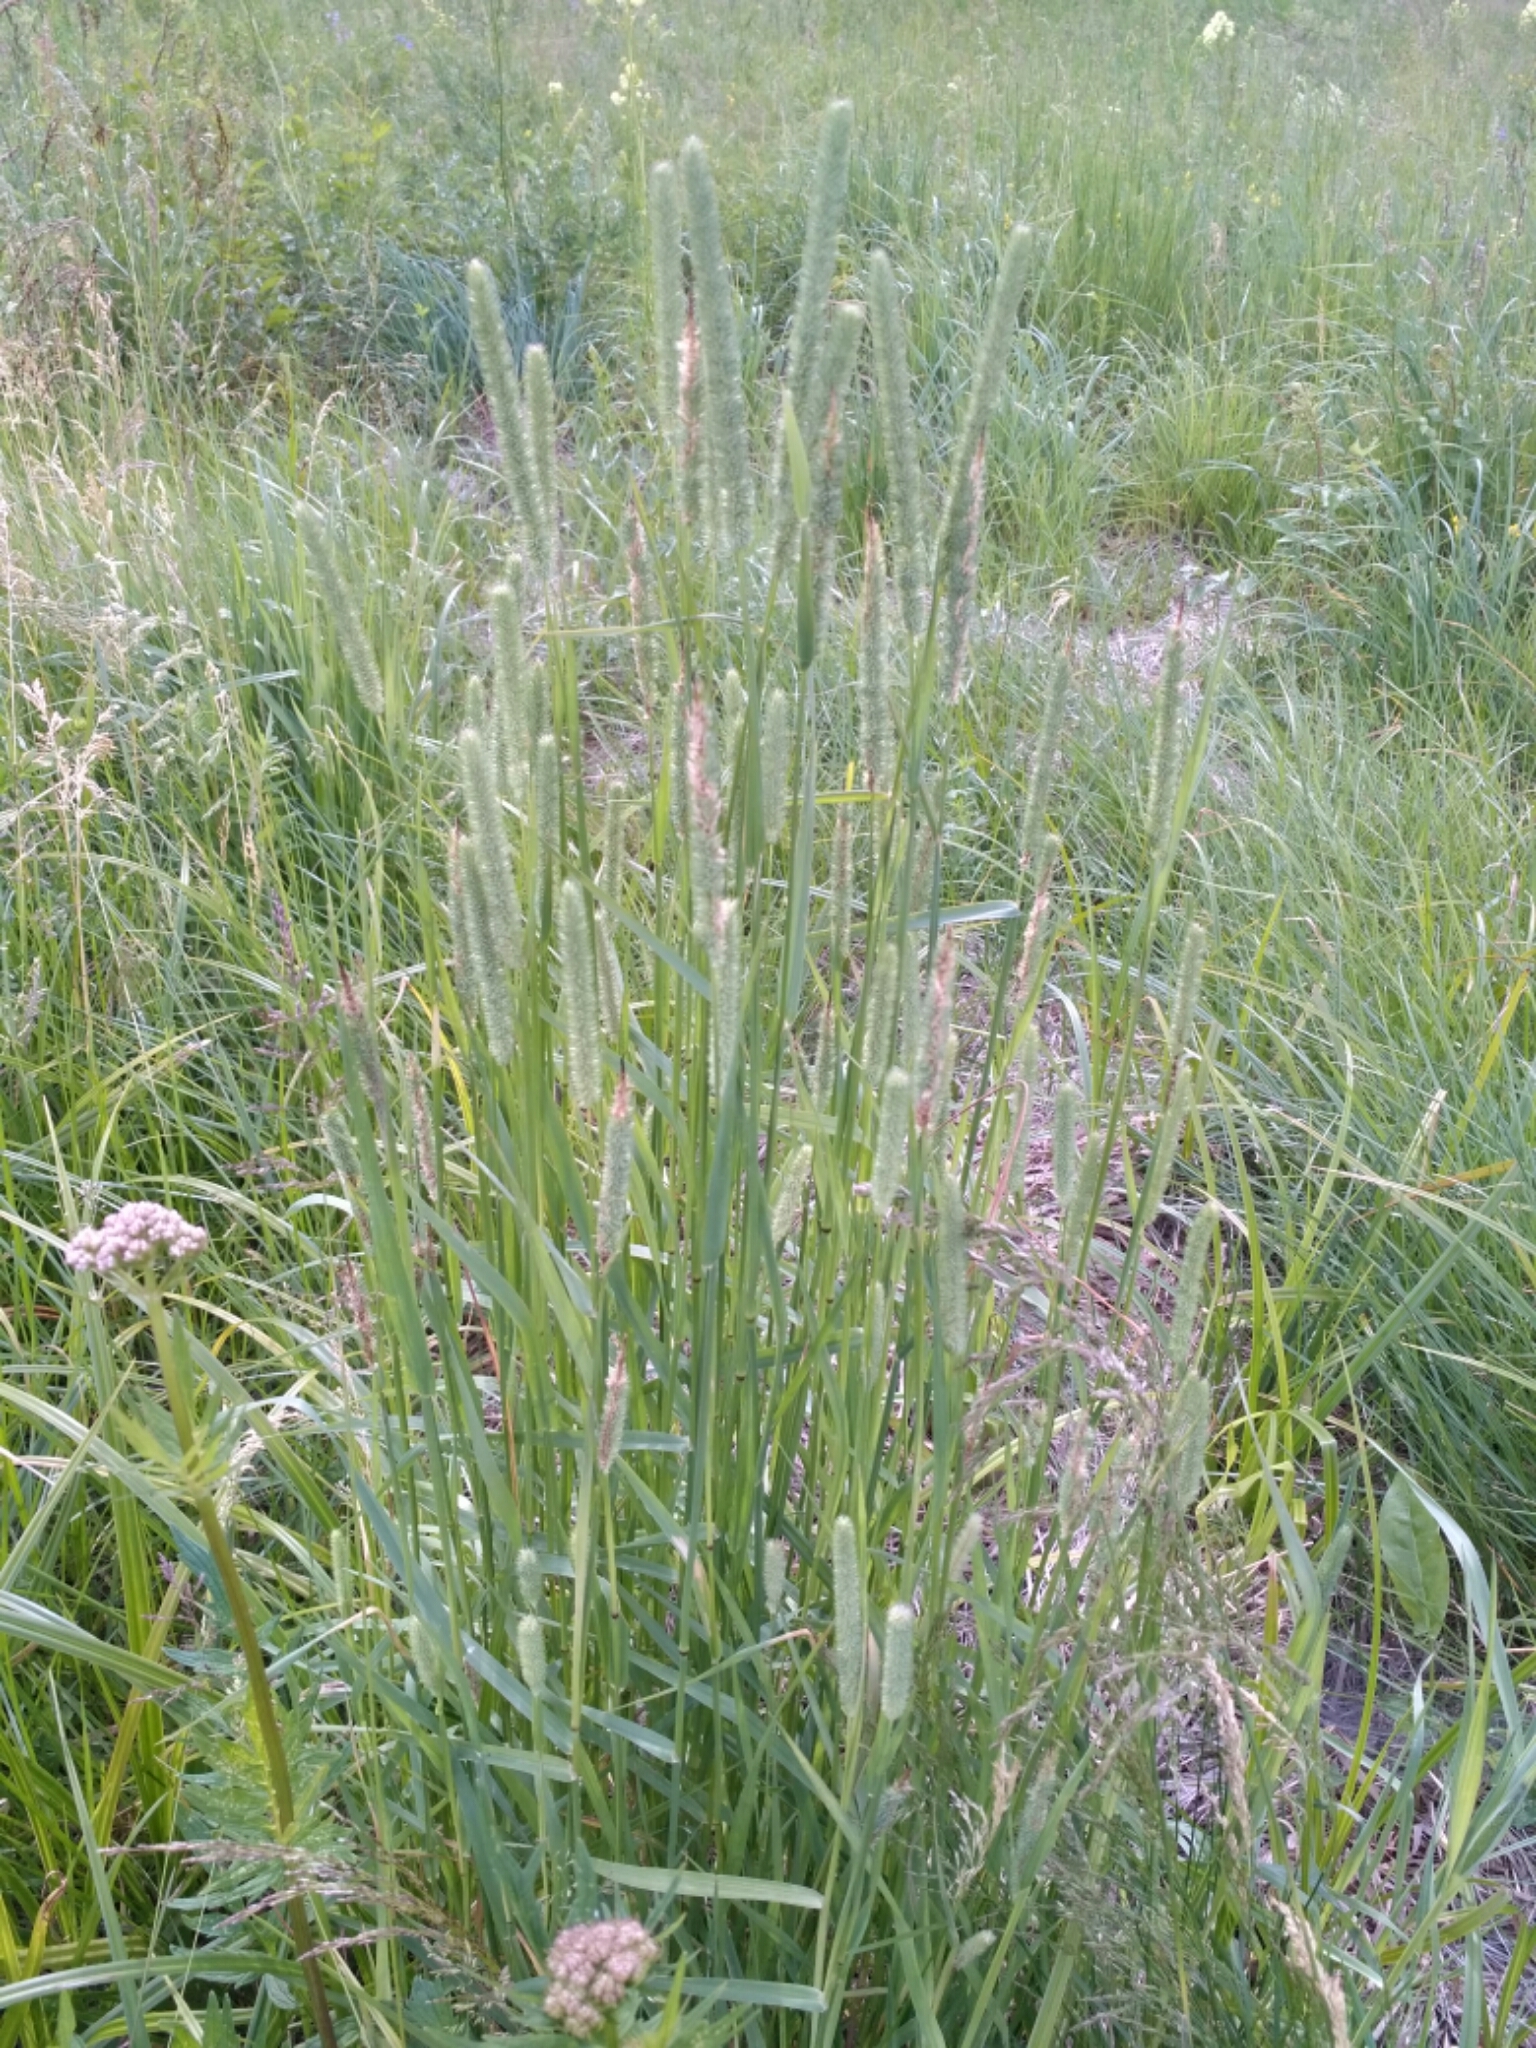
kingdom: Plantae
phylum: Tracheophyta
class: Liliopsida
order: Poales
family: Poaceae
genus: Phleum
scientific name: Phleum pratense
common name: Timothy grass
